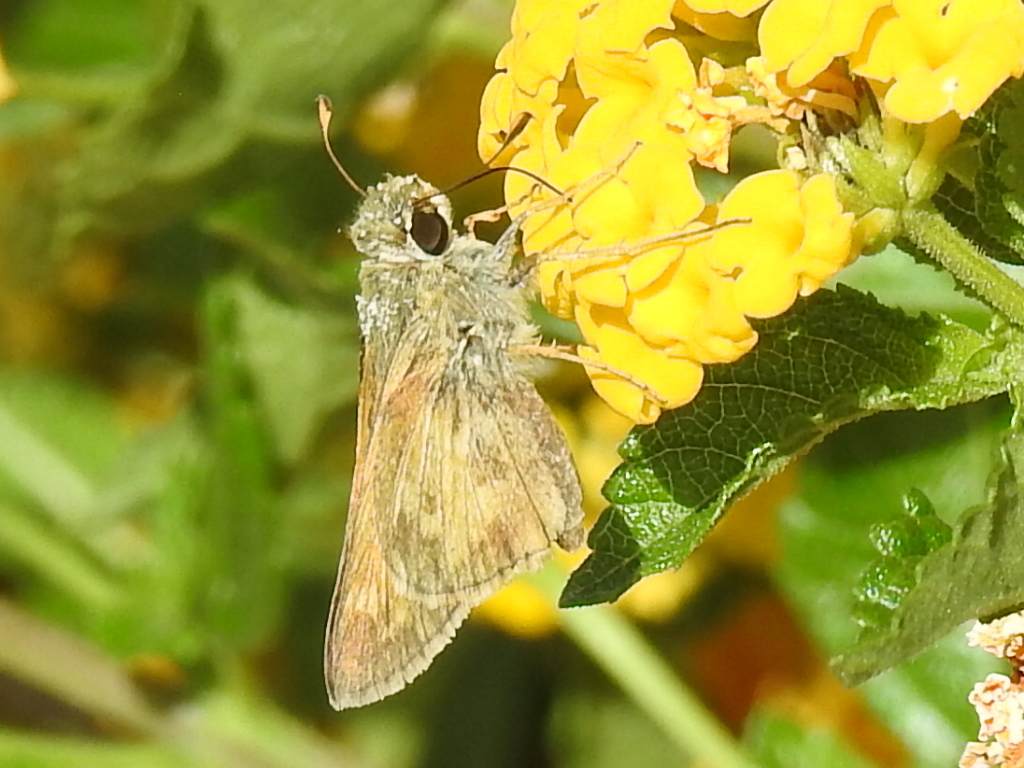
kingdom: Animalia
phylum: Arthropoda
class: Insecta
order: Lepidoptera
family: Hesperiidae
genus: Atalopedes
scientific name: Atalopedes
